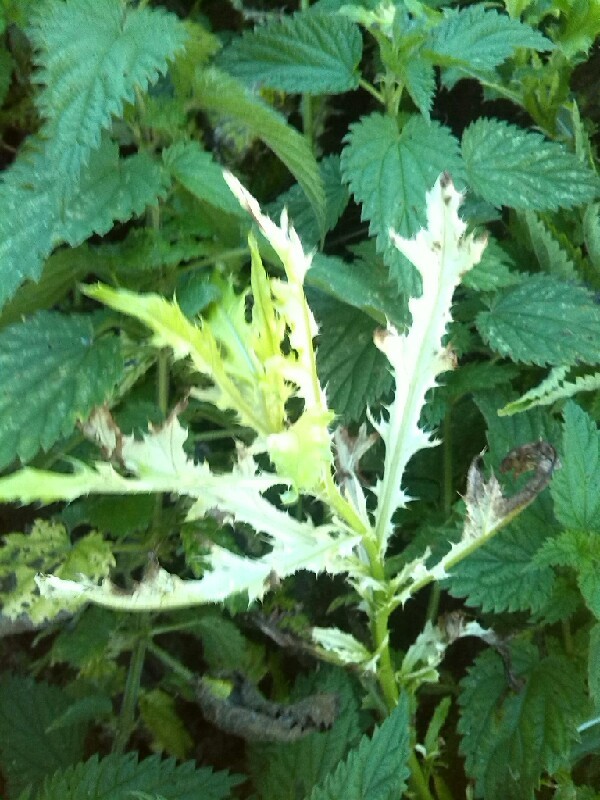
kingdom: Bacteria
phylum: Proteobacteria
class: Gammaproteobacteria
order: Pseudomonadales
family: Pseudomonadaceae
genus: Pseudomonas
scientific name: Pseudomonas syringae
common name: Bacterial speck
